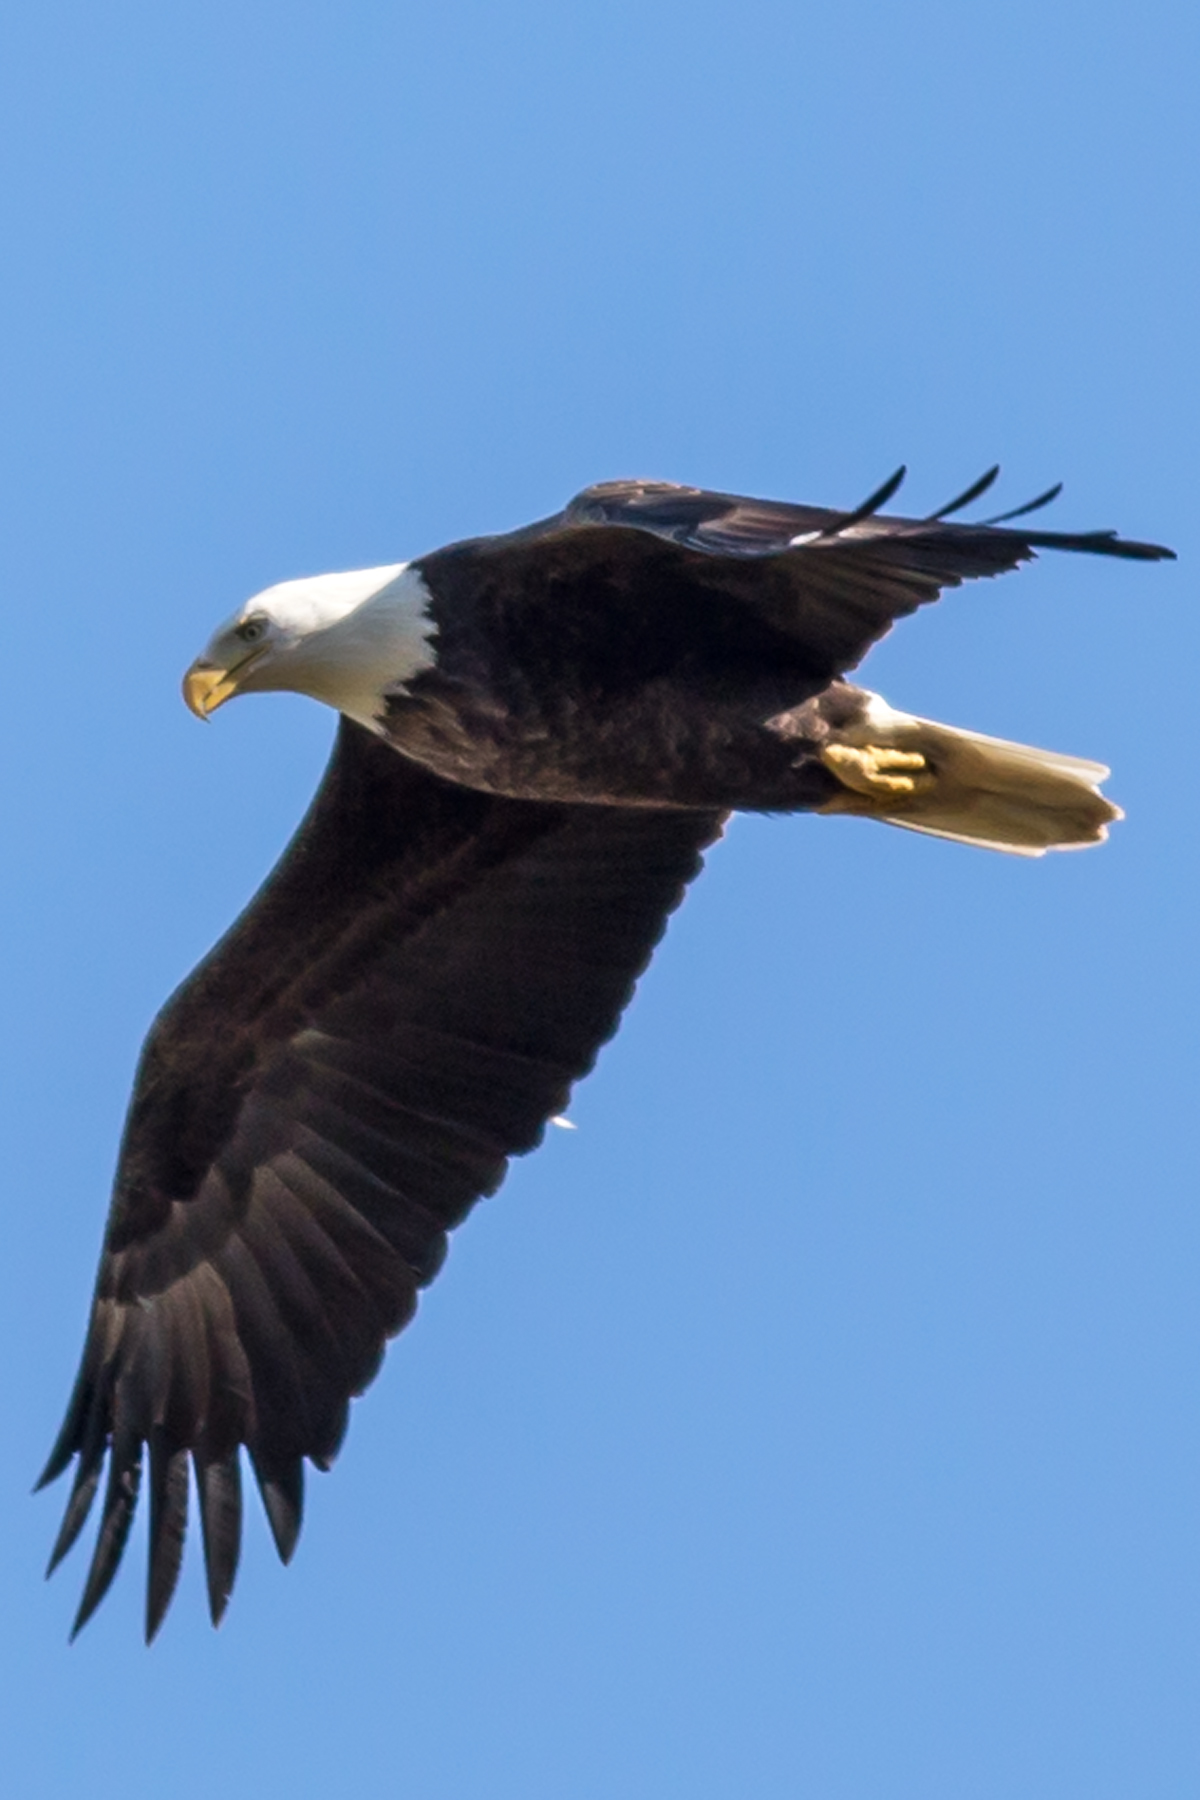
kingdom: Animalia
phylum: Chordata
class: Aves
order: Accipitriformes
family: Accipitridae
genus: Haliaeetus
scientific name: Haliaeetus leucocephalus
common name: Bald eagle
